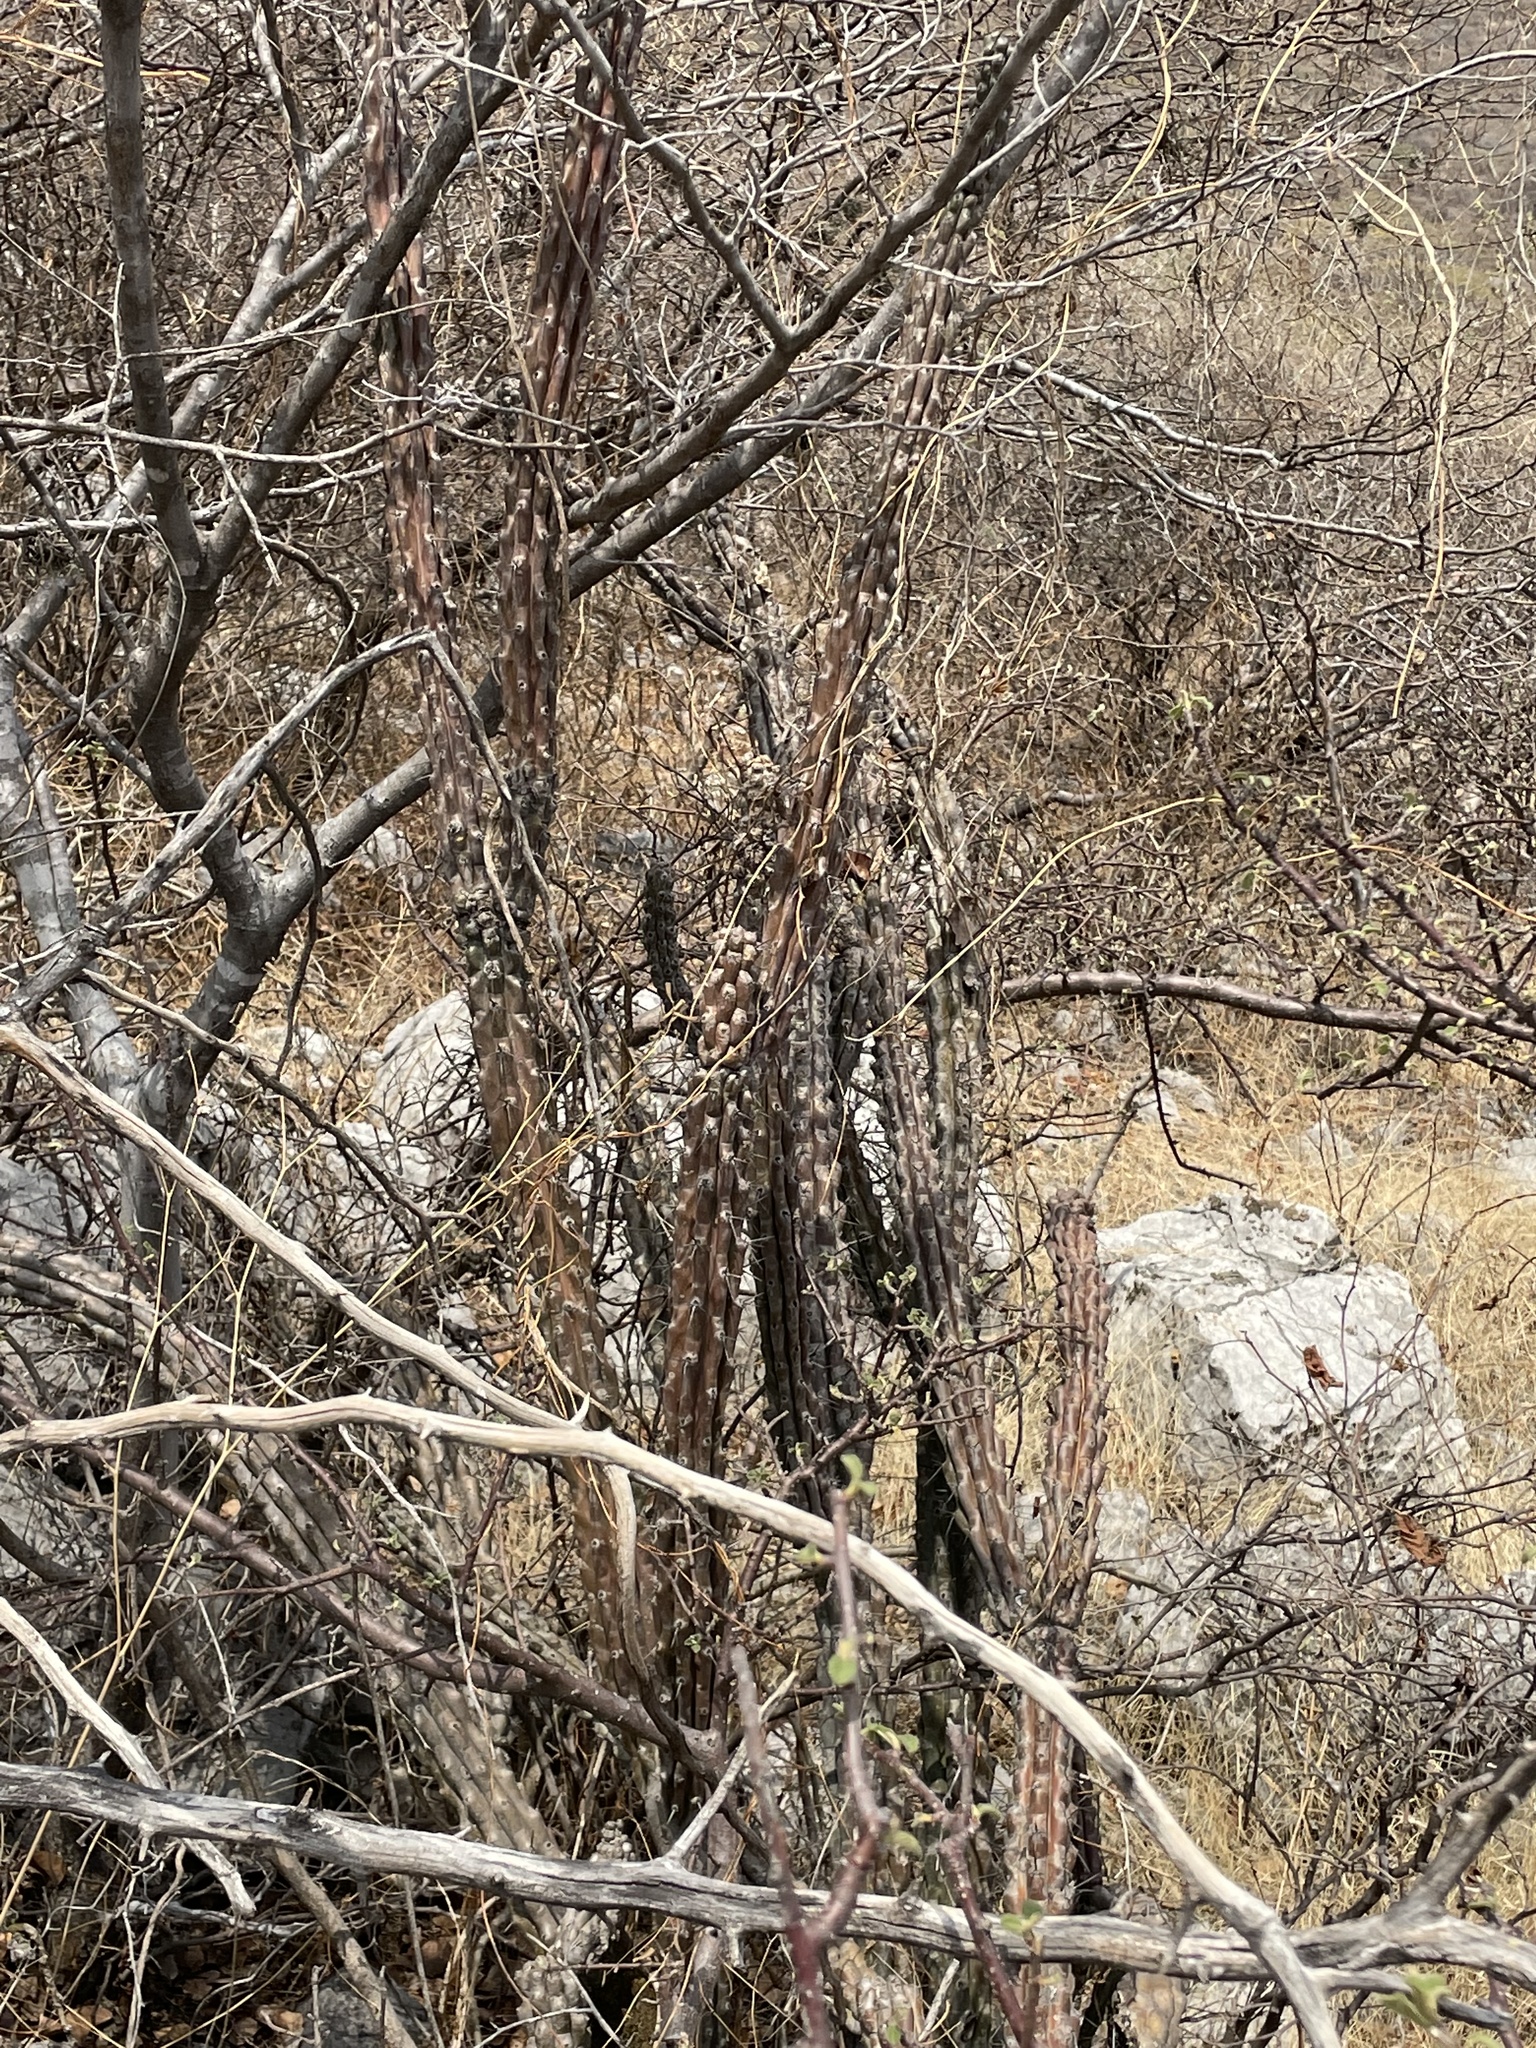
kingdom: Plantae
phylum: Tracheophyta
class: Magnoliopsida
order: Caryophyllales
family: Cactaceae
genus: Stenocereus
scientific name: Stenocereus beneckei
